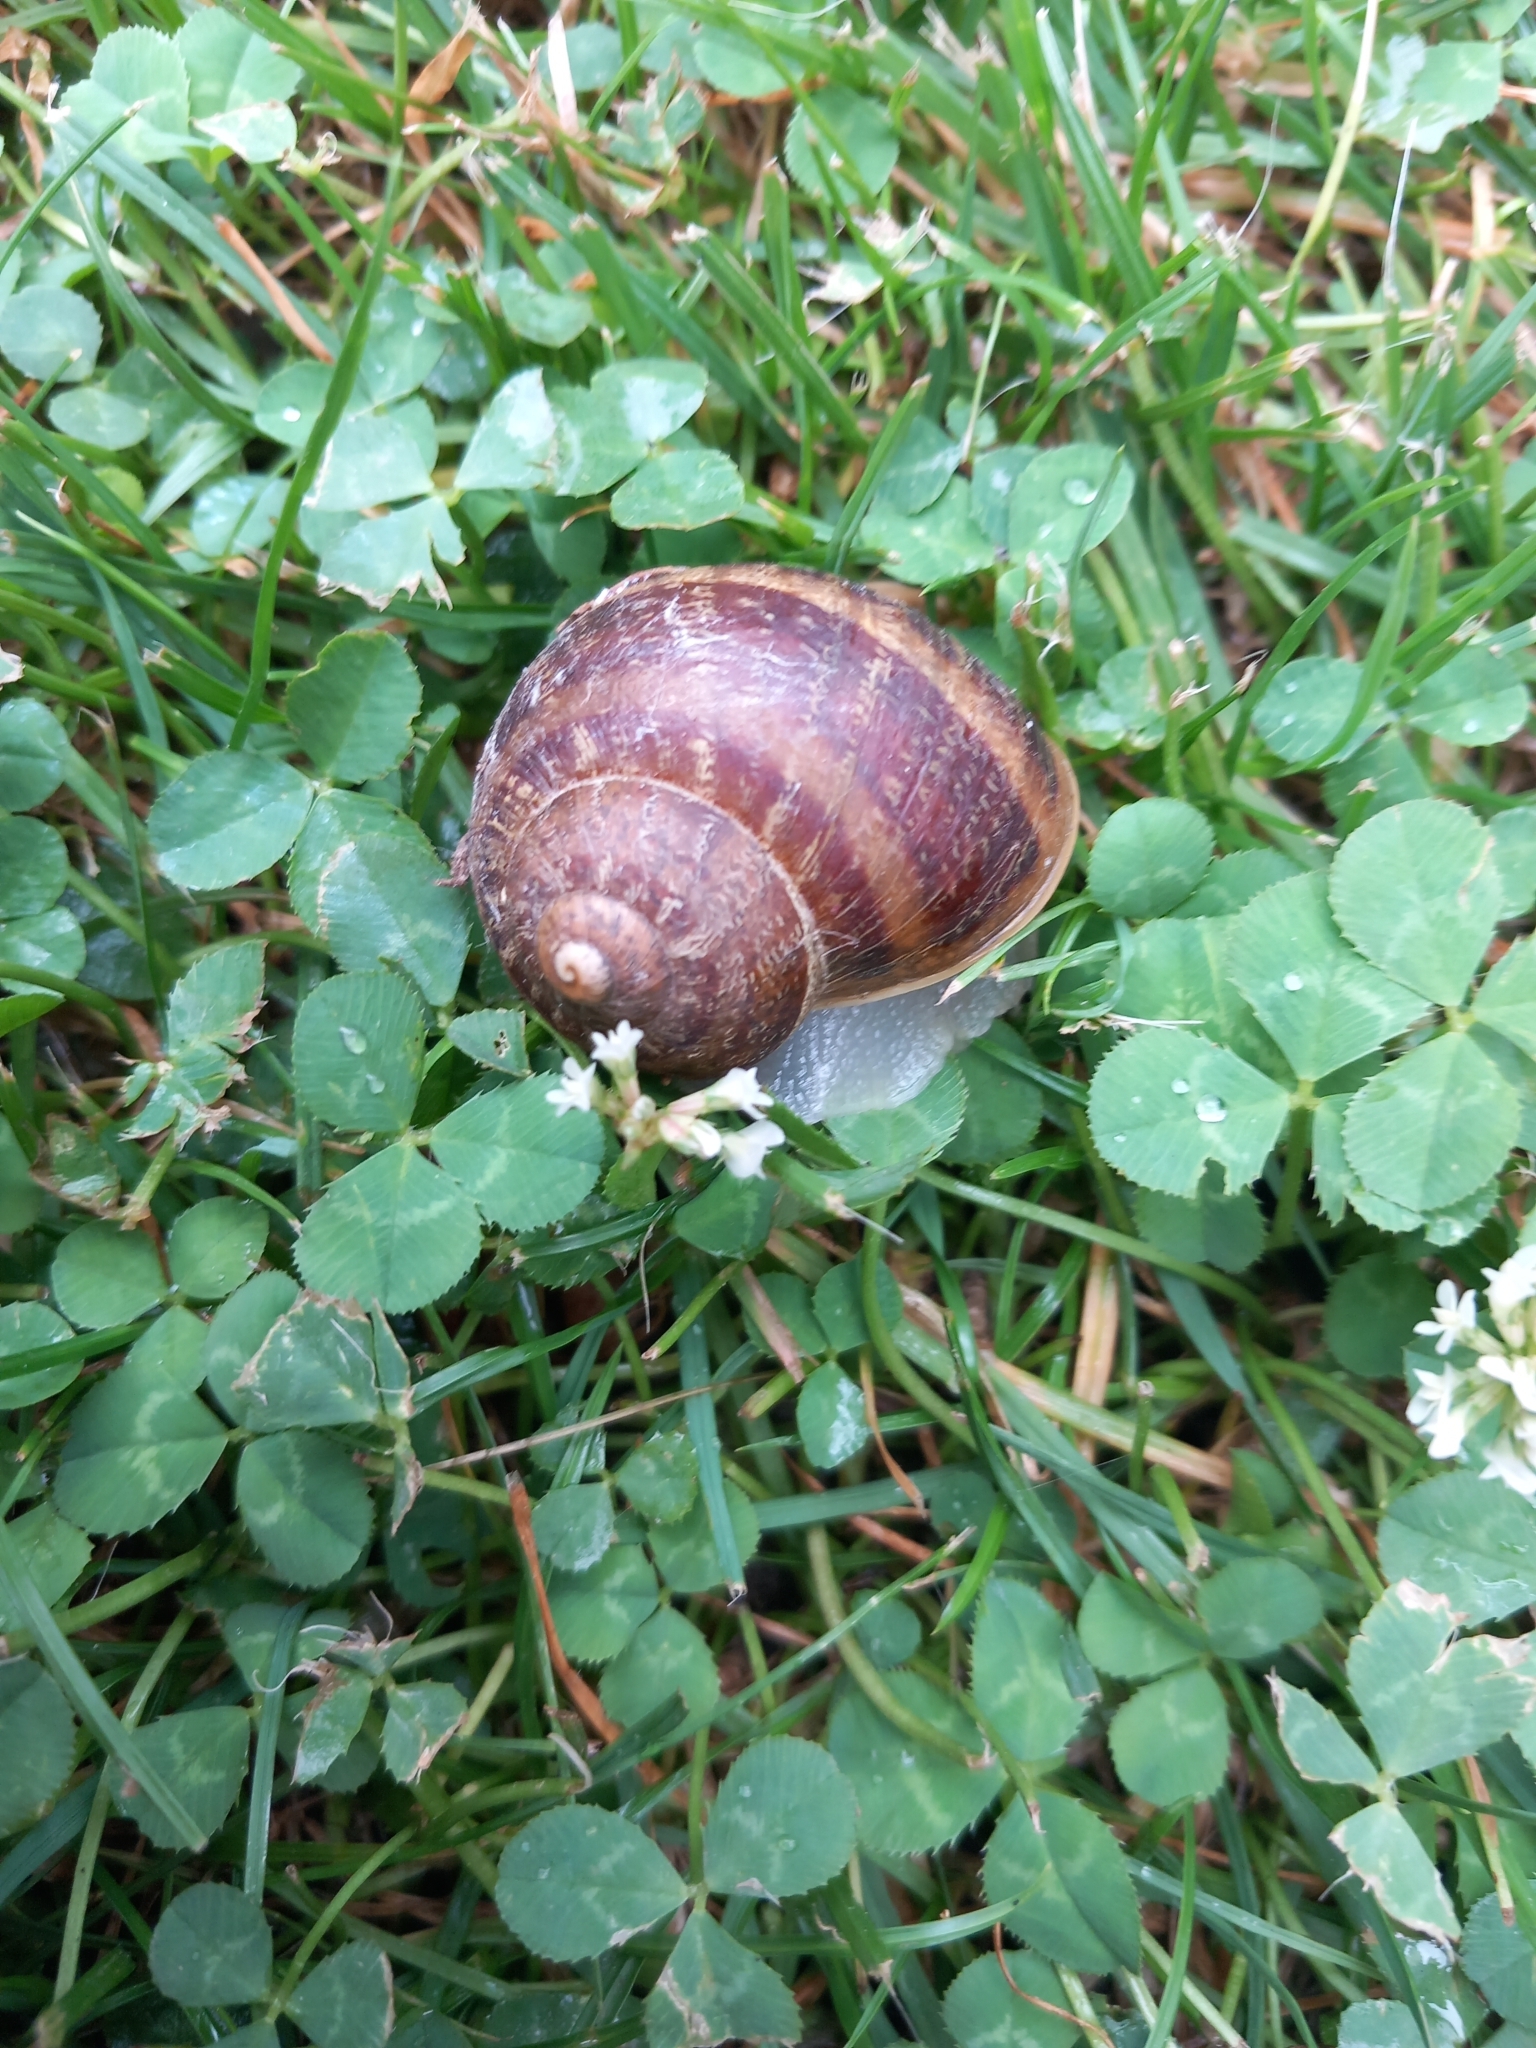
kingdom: Animalia
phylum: Mollusca
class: Gastropoda
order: Stylommatophora
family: Helicidae
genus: Cornu
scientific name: Cornu aspersum
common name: Brown garden snail
